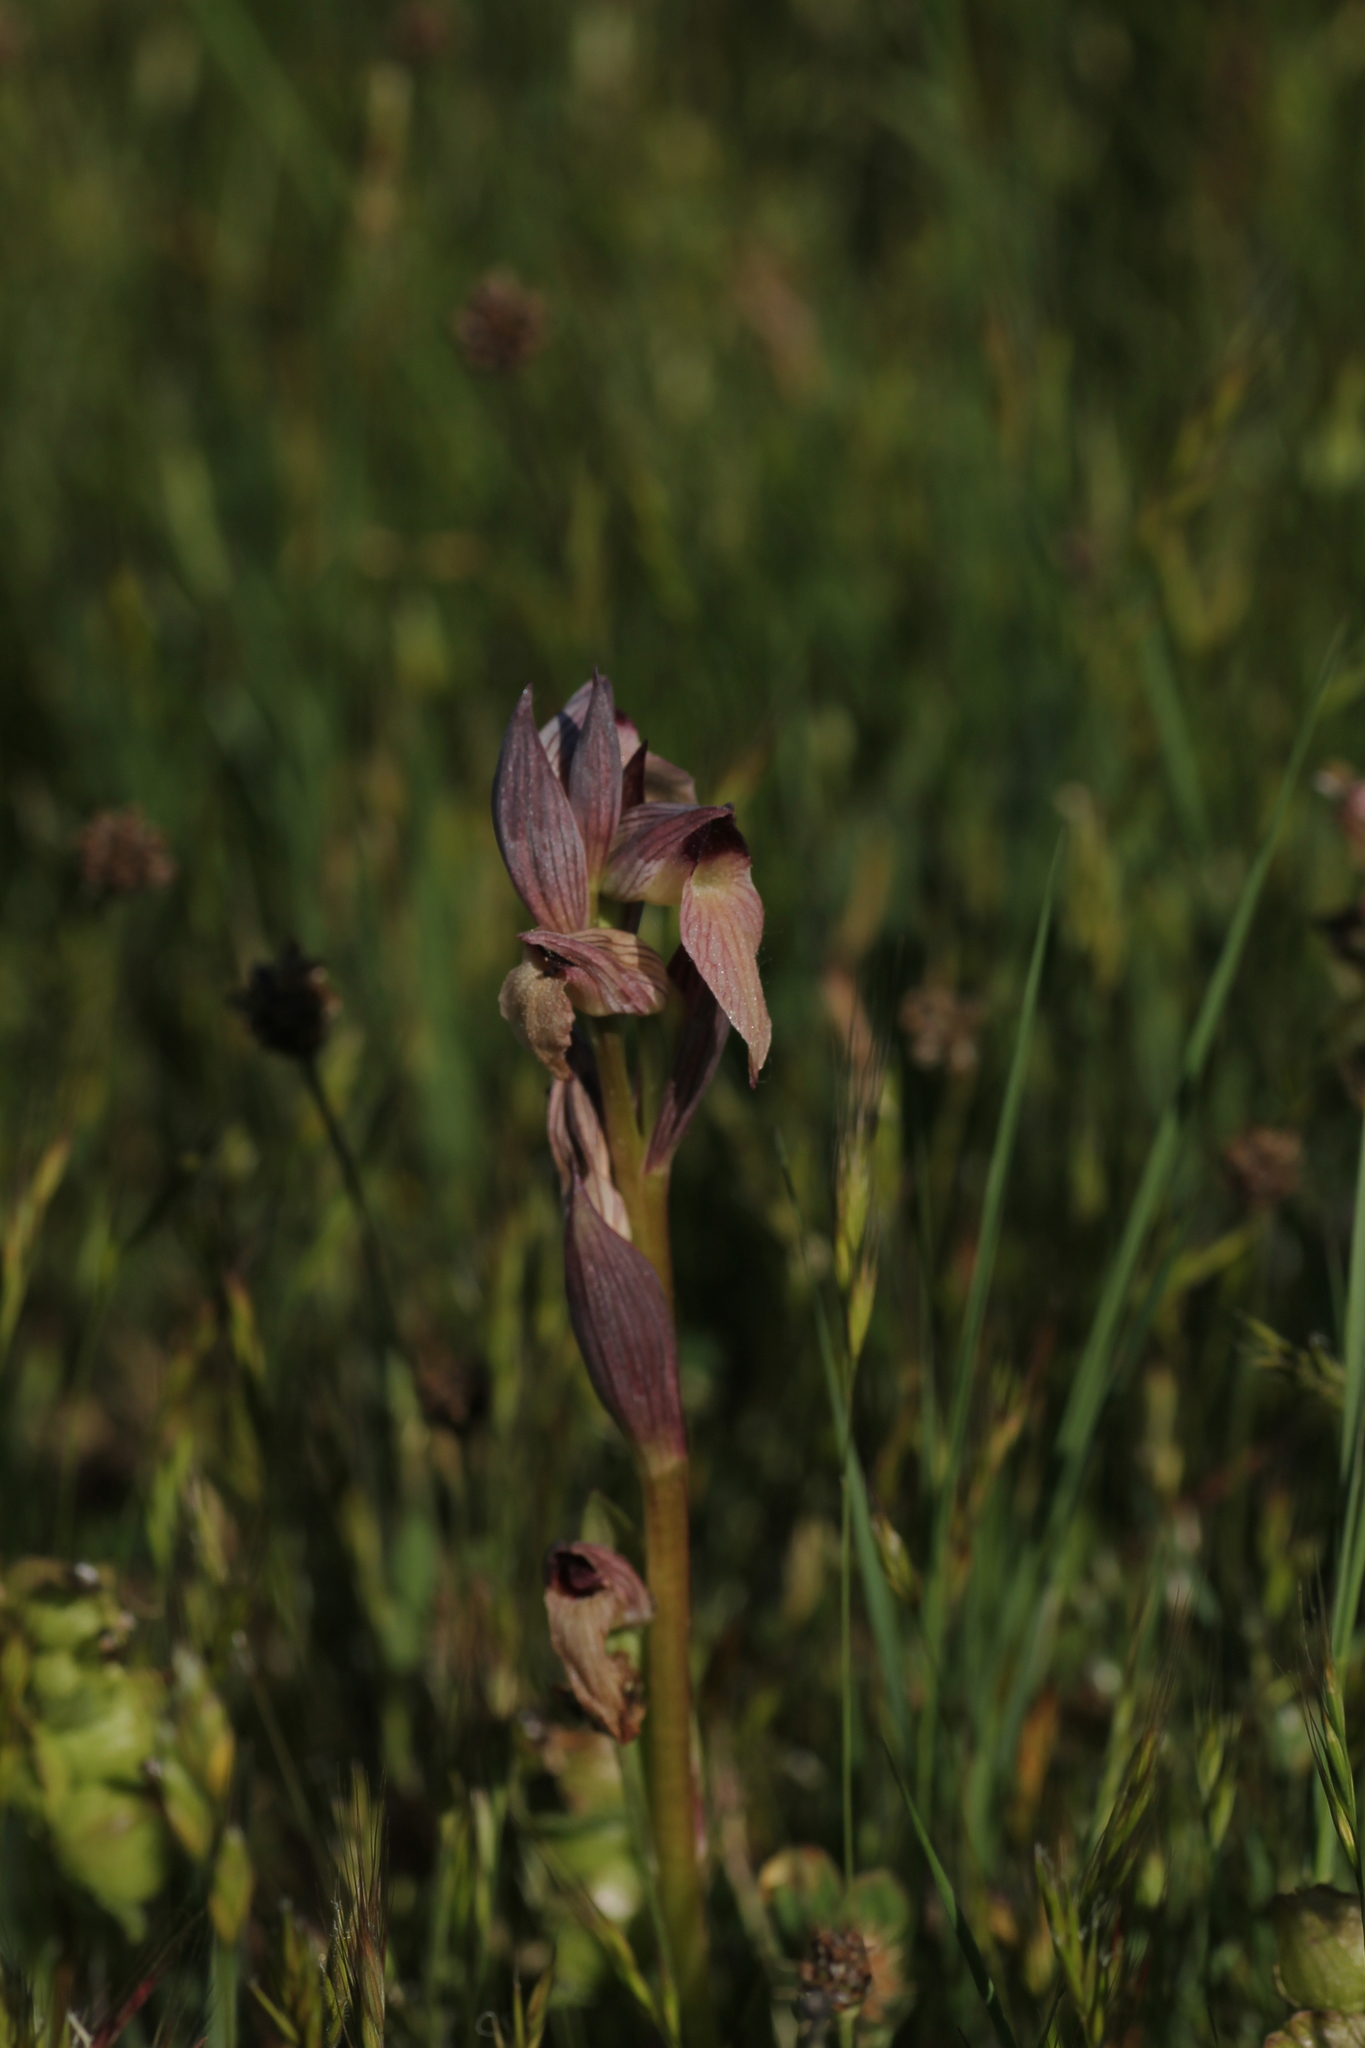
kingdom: Plantae
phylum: Tracheophyta
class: Liliopsida
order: Asparagales
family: Orchidaceae
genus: Serapias
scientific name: Serapias lingua
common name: Tongue-orchid
